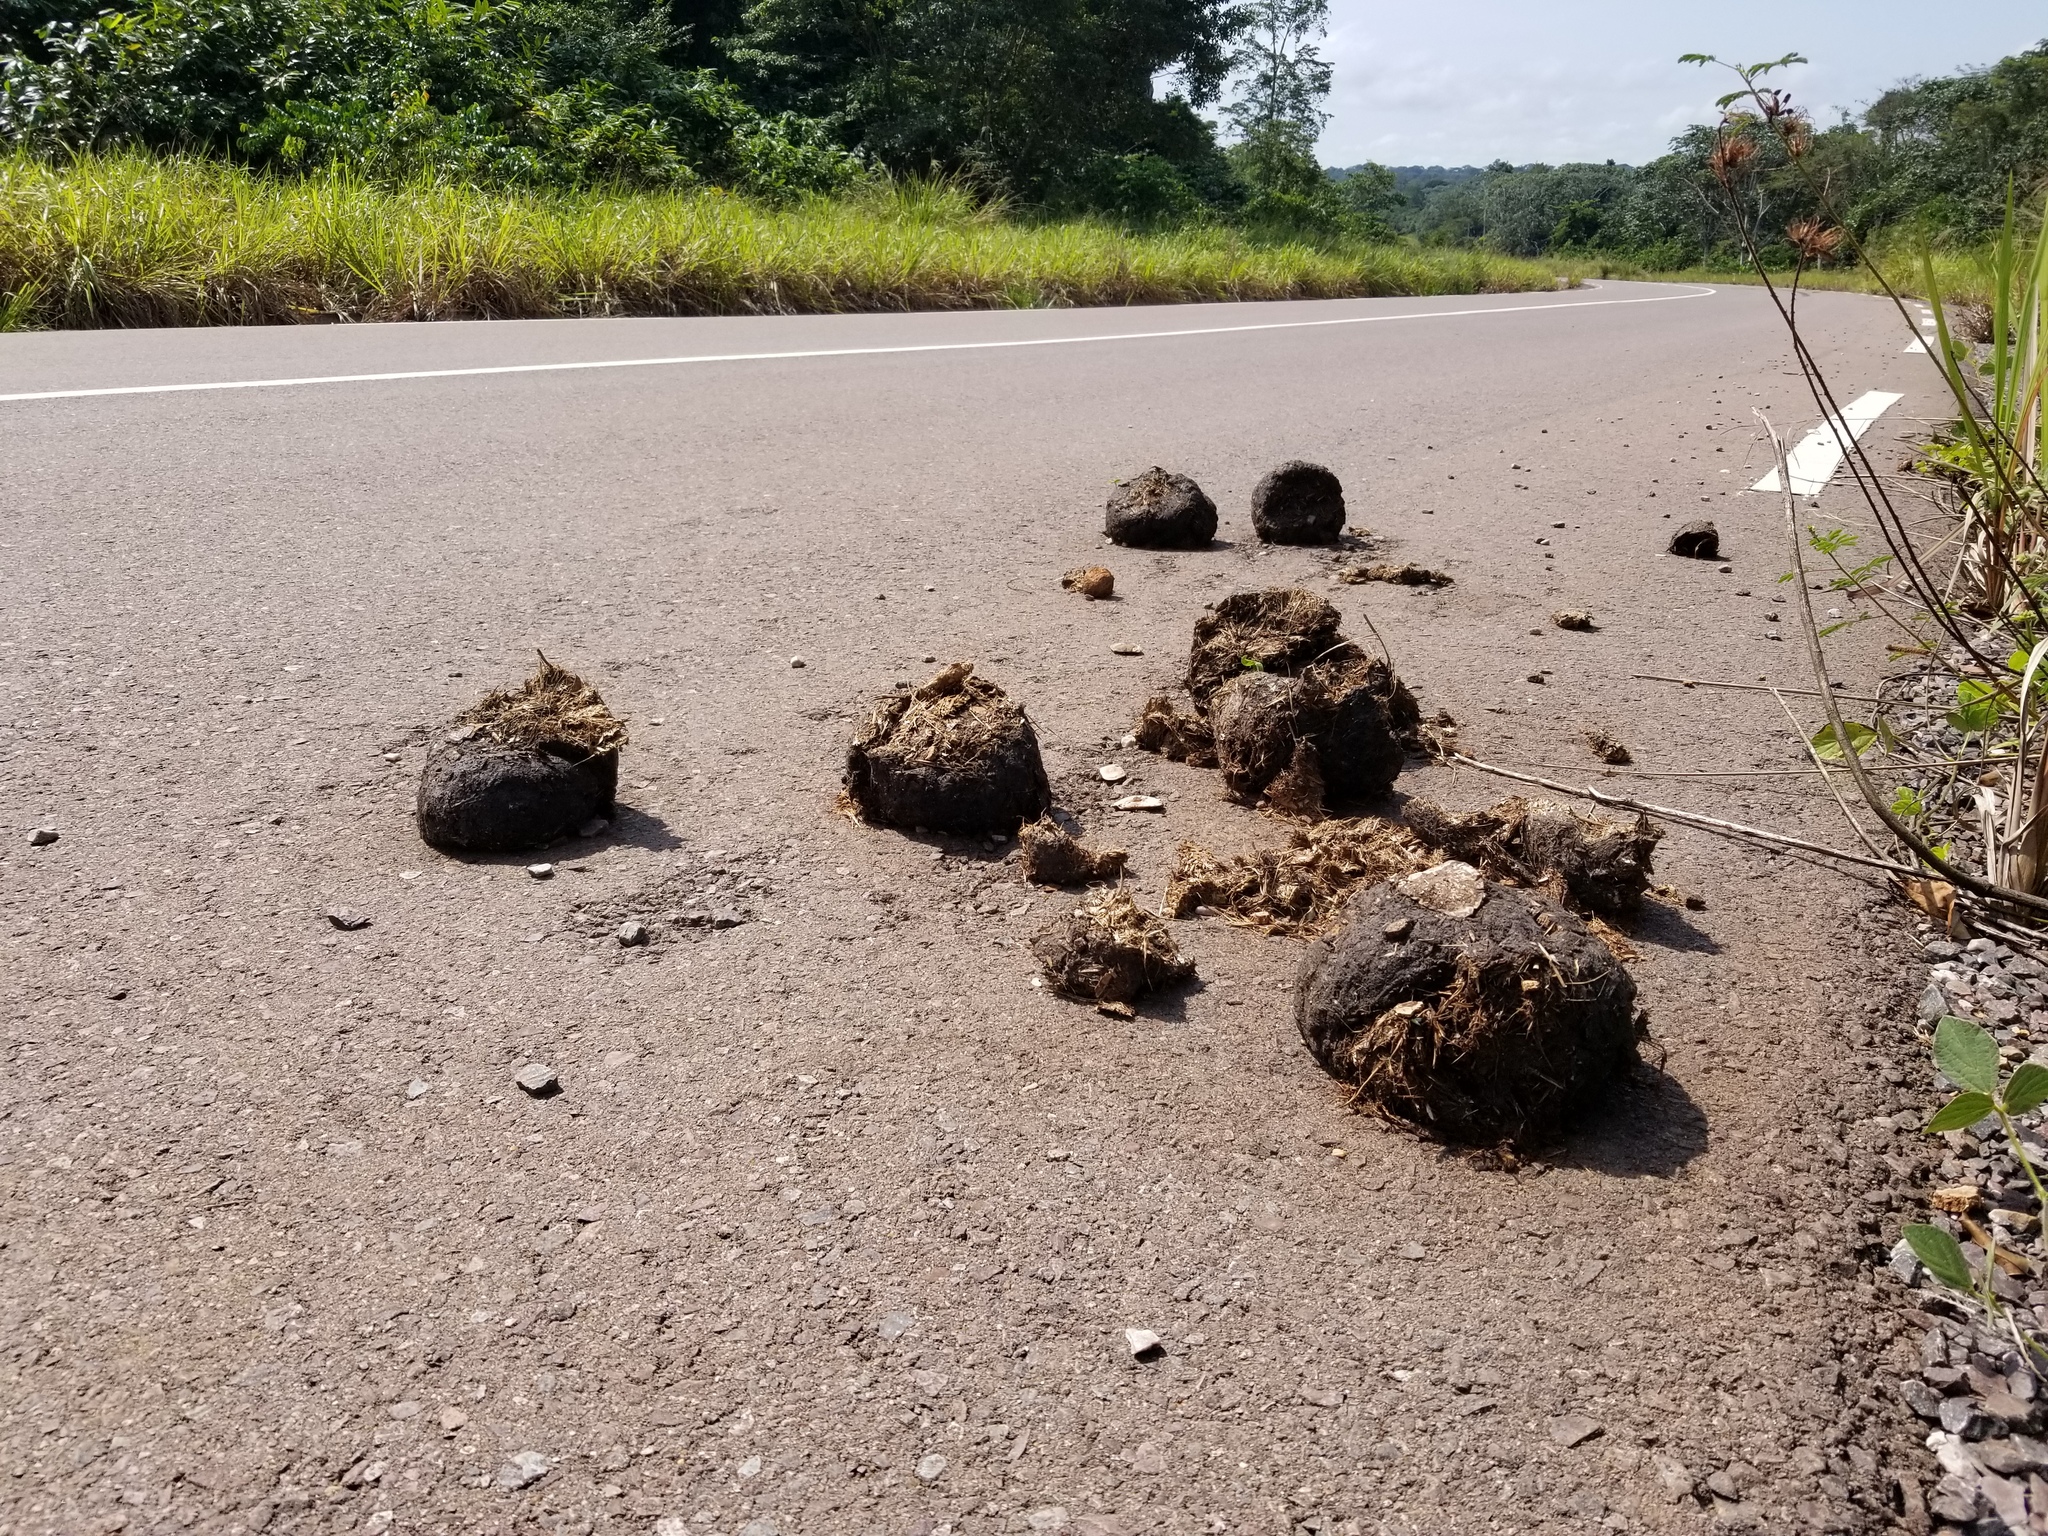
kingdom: Animalia
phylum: Chordata
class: Mammalia
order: Proboscidea
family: Elephantidae
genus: Loxodonta
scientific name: Loxodonta cyclotis
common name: African forest elephant
